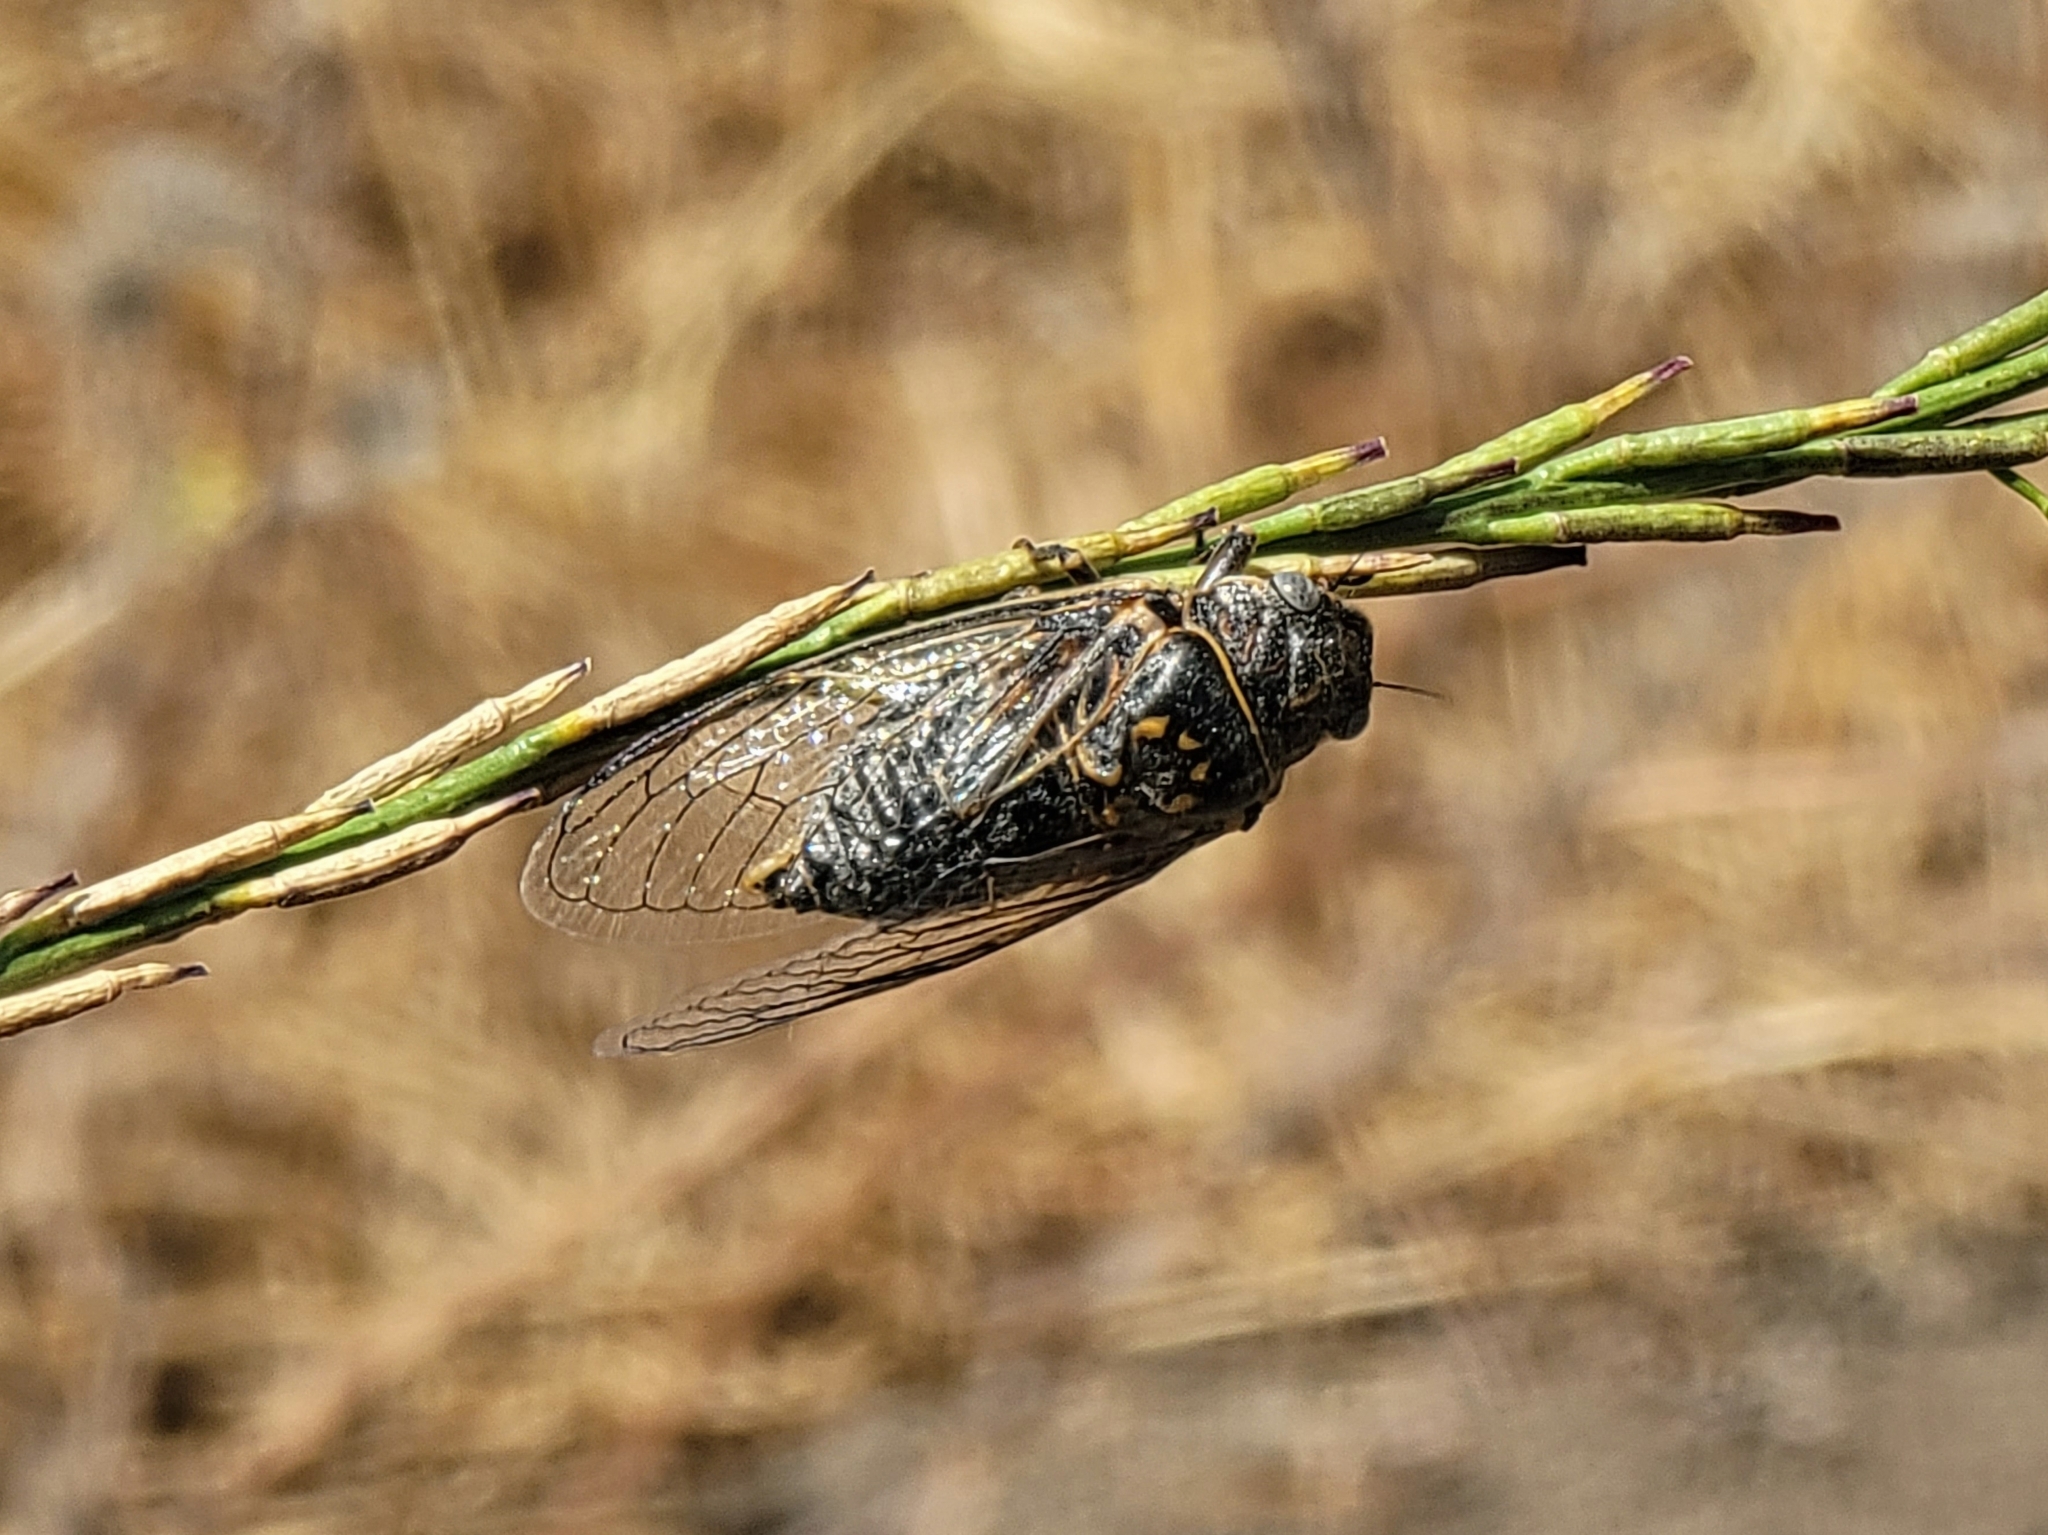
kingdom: Animalia
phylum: Arthropoda
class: Insecta
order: Hemiptera
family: Cicadidae
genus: Tibicinoides
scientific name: Tibicinoides
